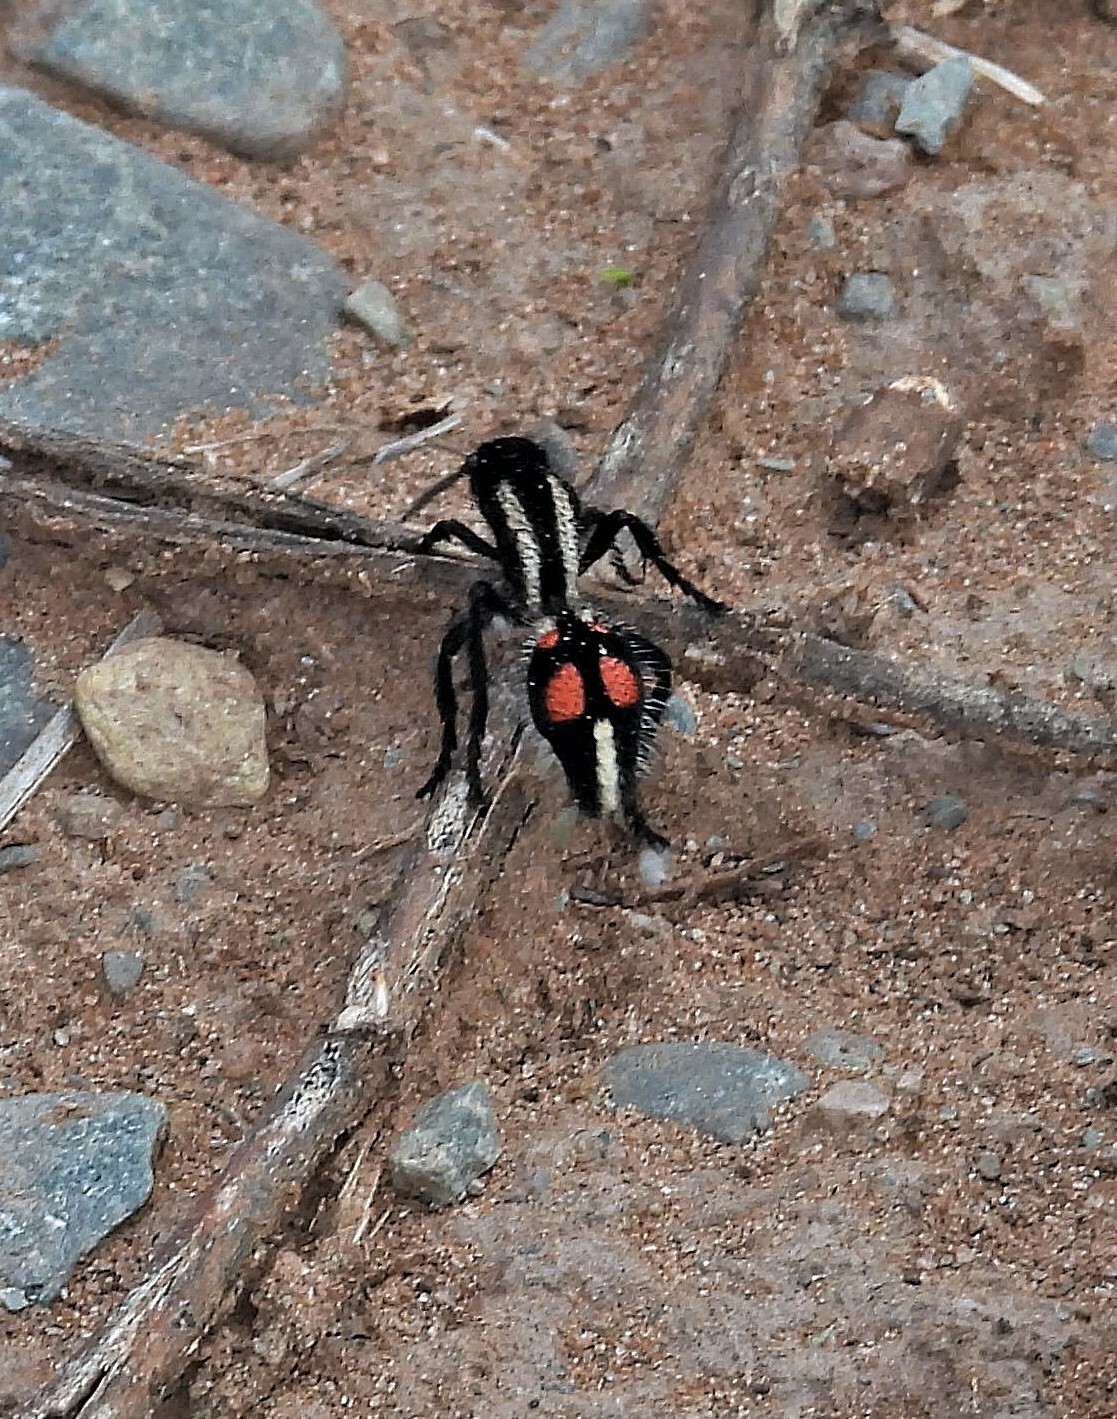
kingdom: Animalia
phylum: Arthropoda
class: Insecta
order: Hymenoptera
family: Mutillidae
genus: Traumatomutilla
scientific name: Traumatomutilla
